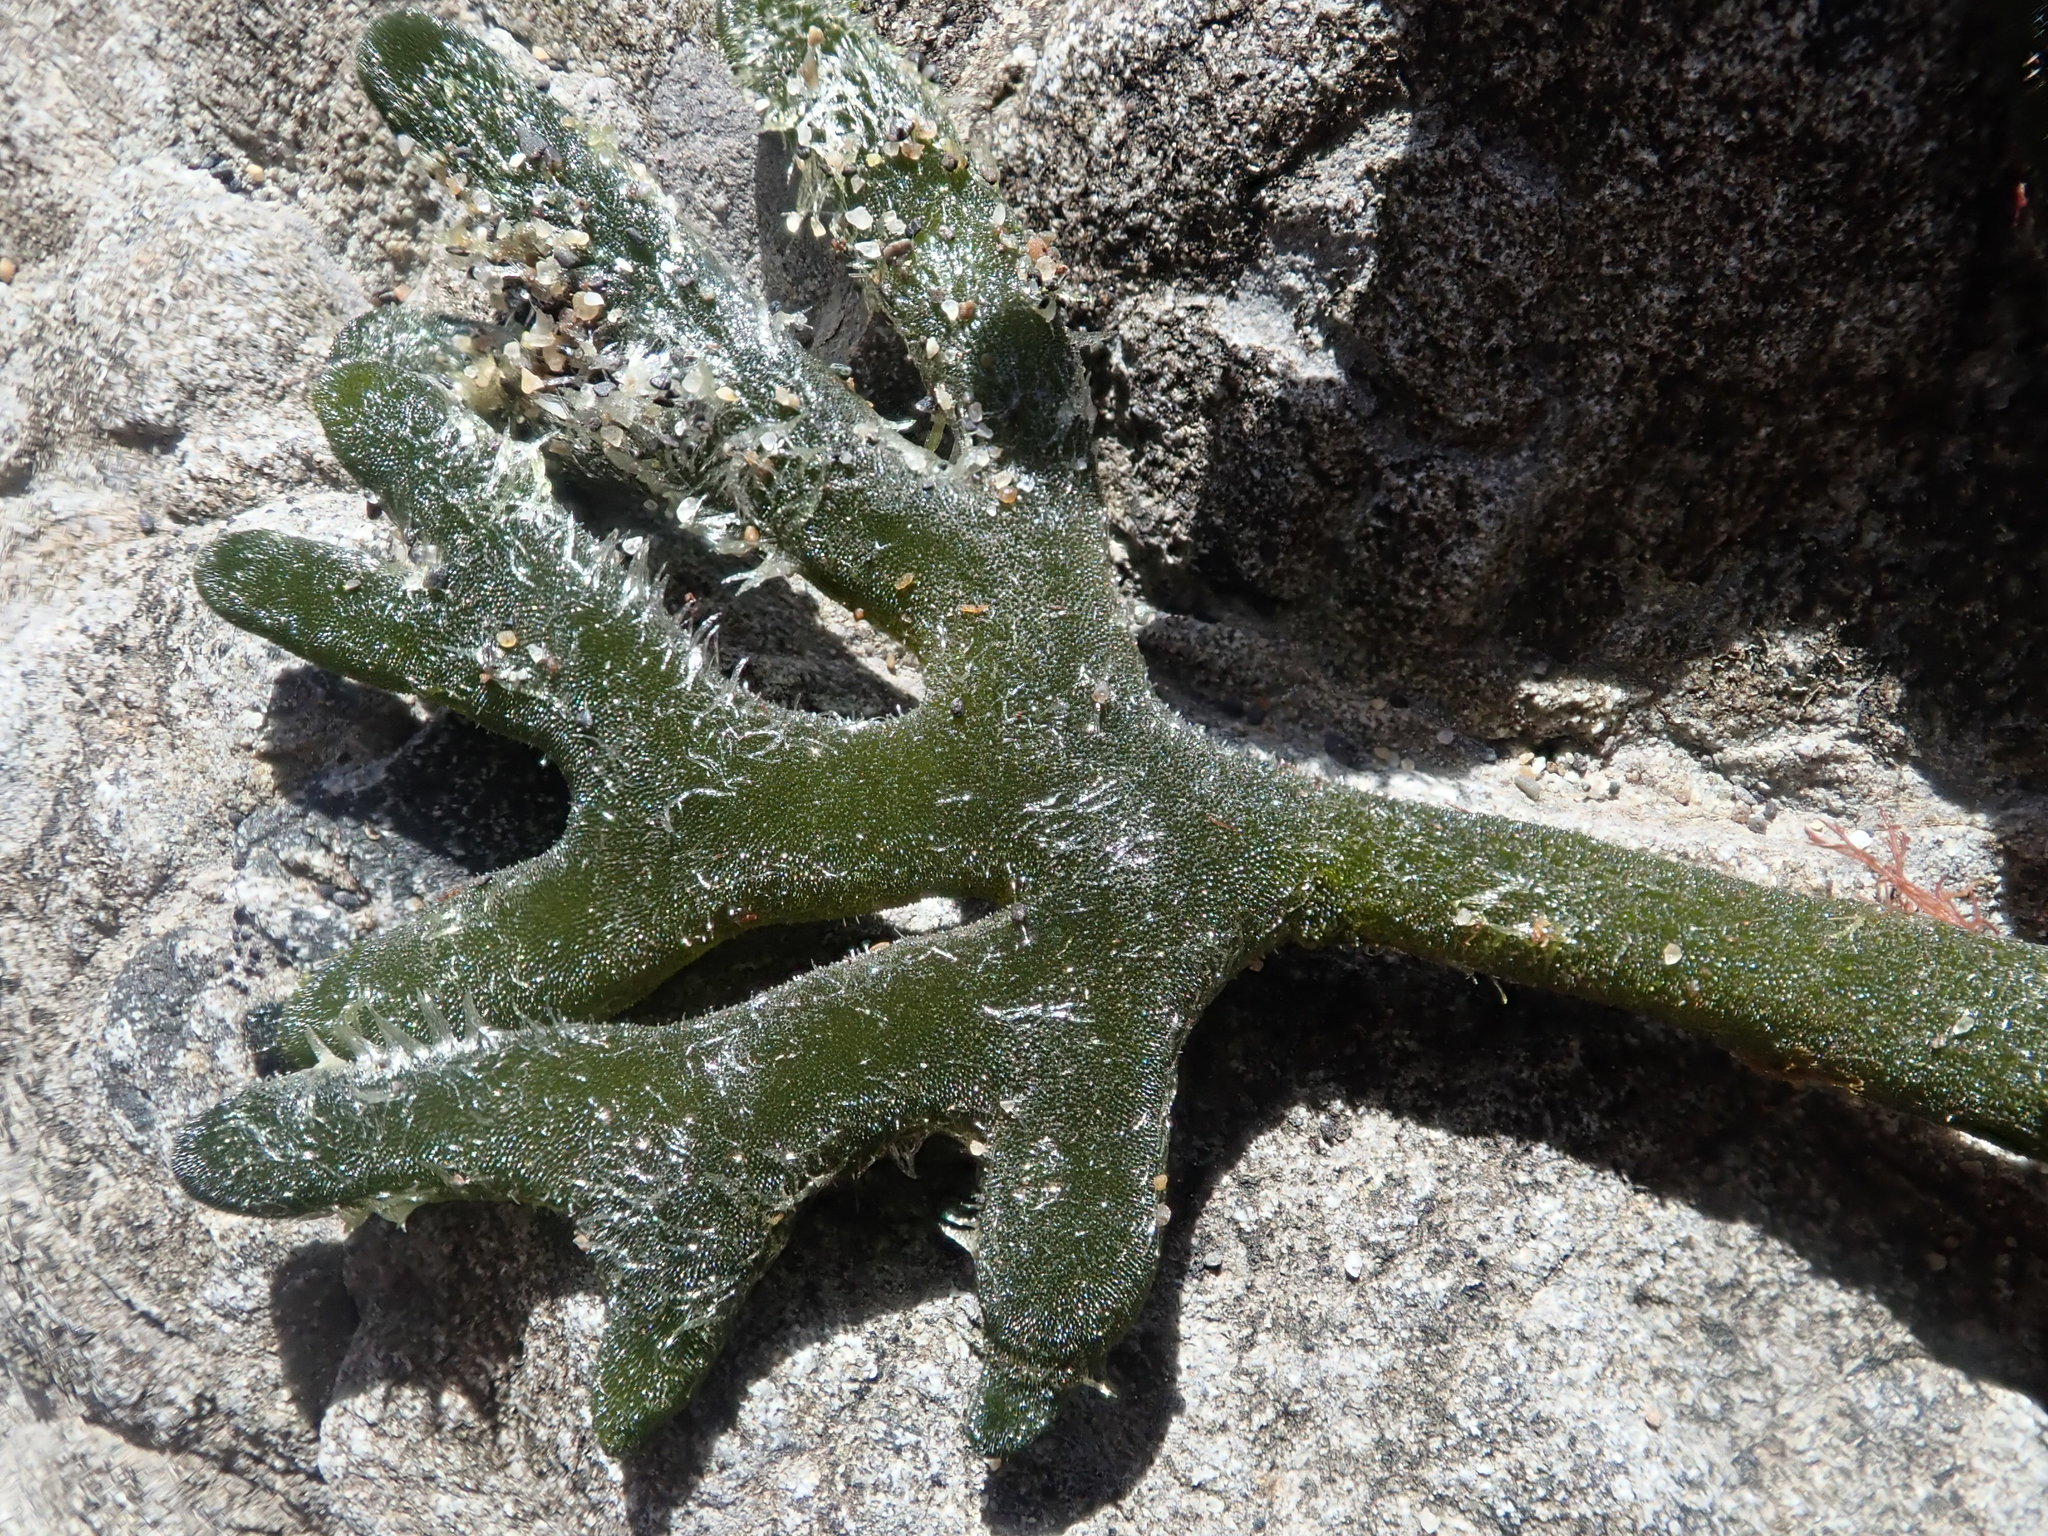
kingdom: Plantae
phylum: Chlorophyta
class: Ulvophyceae
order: Bryopsidales
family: Codiaceae
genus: Codium
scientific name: Codium fragile
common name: Dead man's fingers
